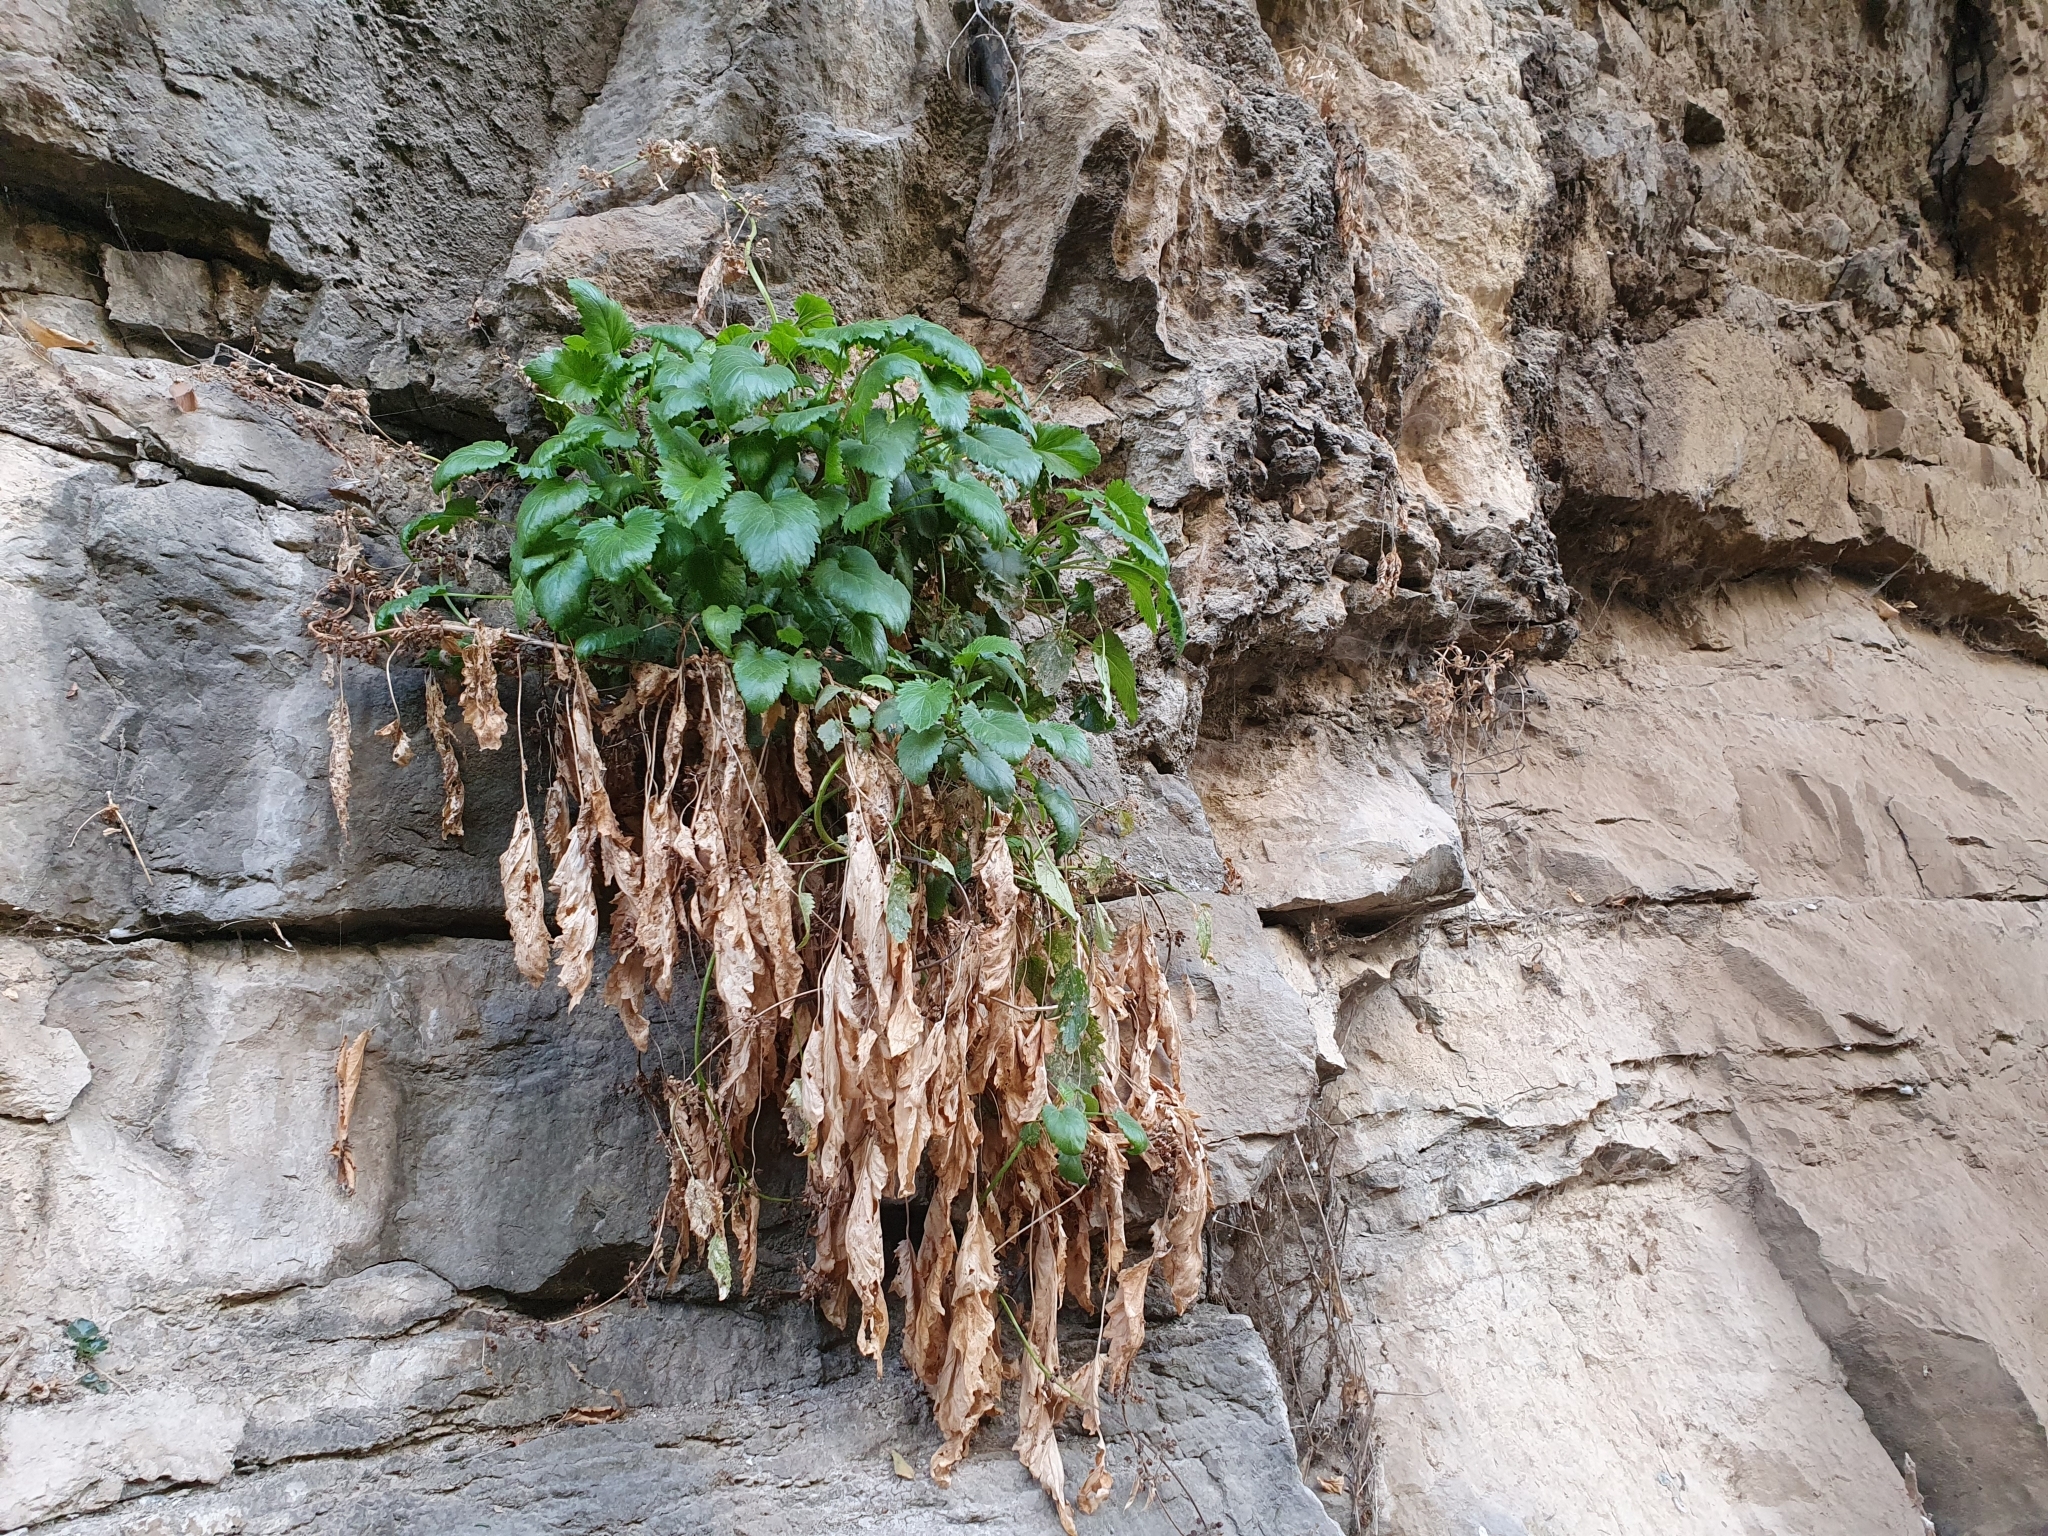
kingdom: Plantae
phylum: Tracheophyta
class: Magnoliopsida
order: Lamiales
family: Scrophulariaceae
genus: Scrophularia
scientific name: Scrophularia laevigata
